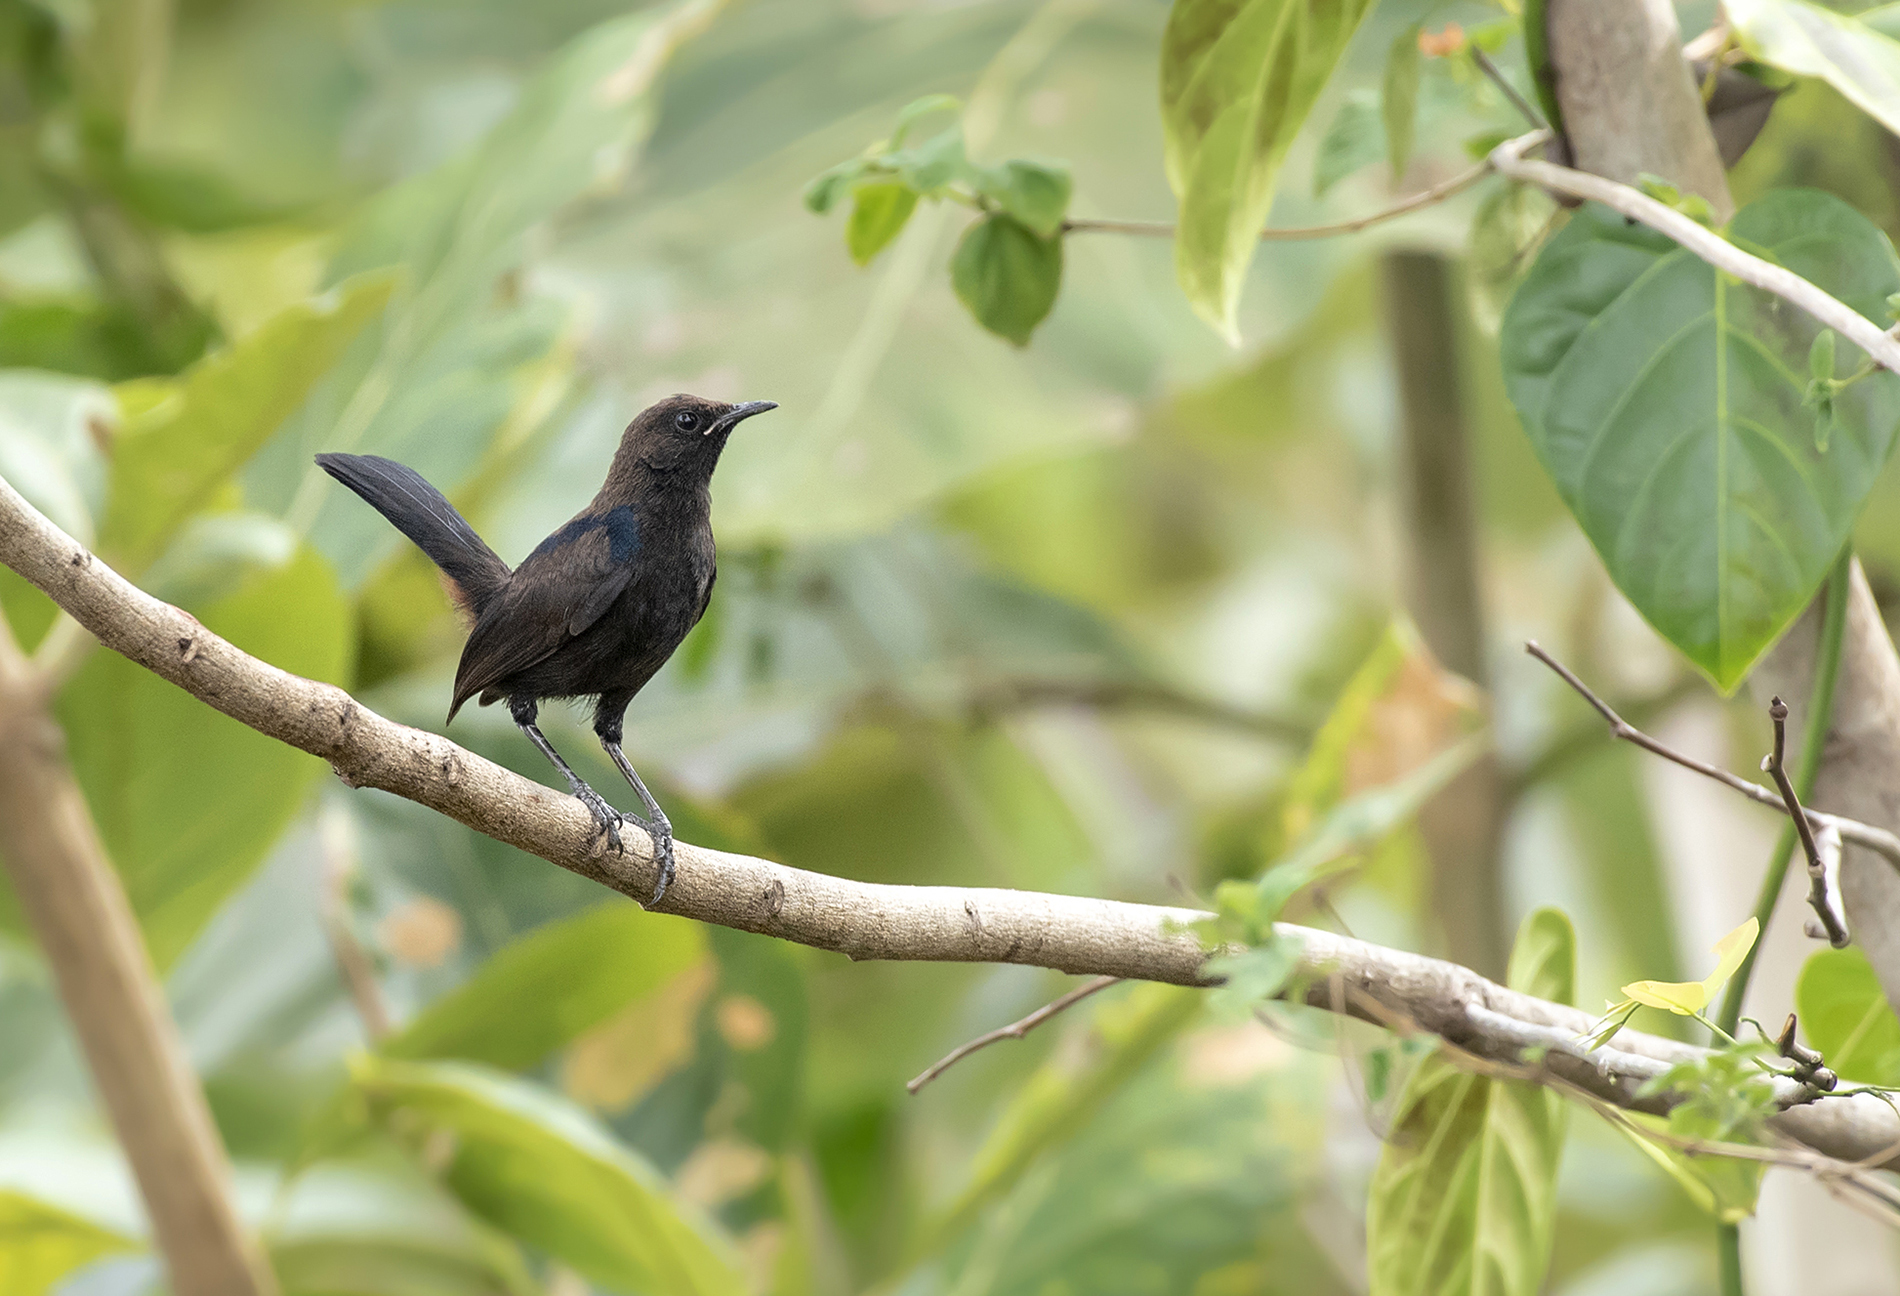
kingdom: Animalia
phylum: Chordata
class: Aves
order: Passeriformes
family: Muscicapidae
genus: Saxicoloides
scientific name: Saxicoloides fulicatus
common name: Indian robin
